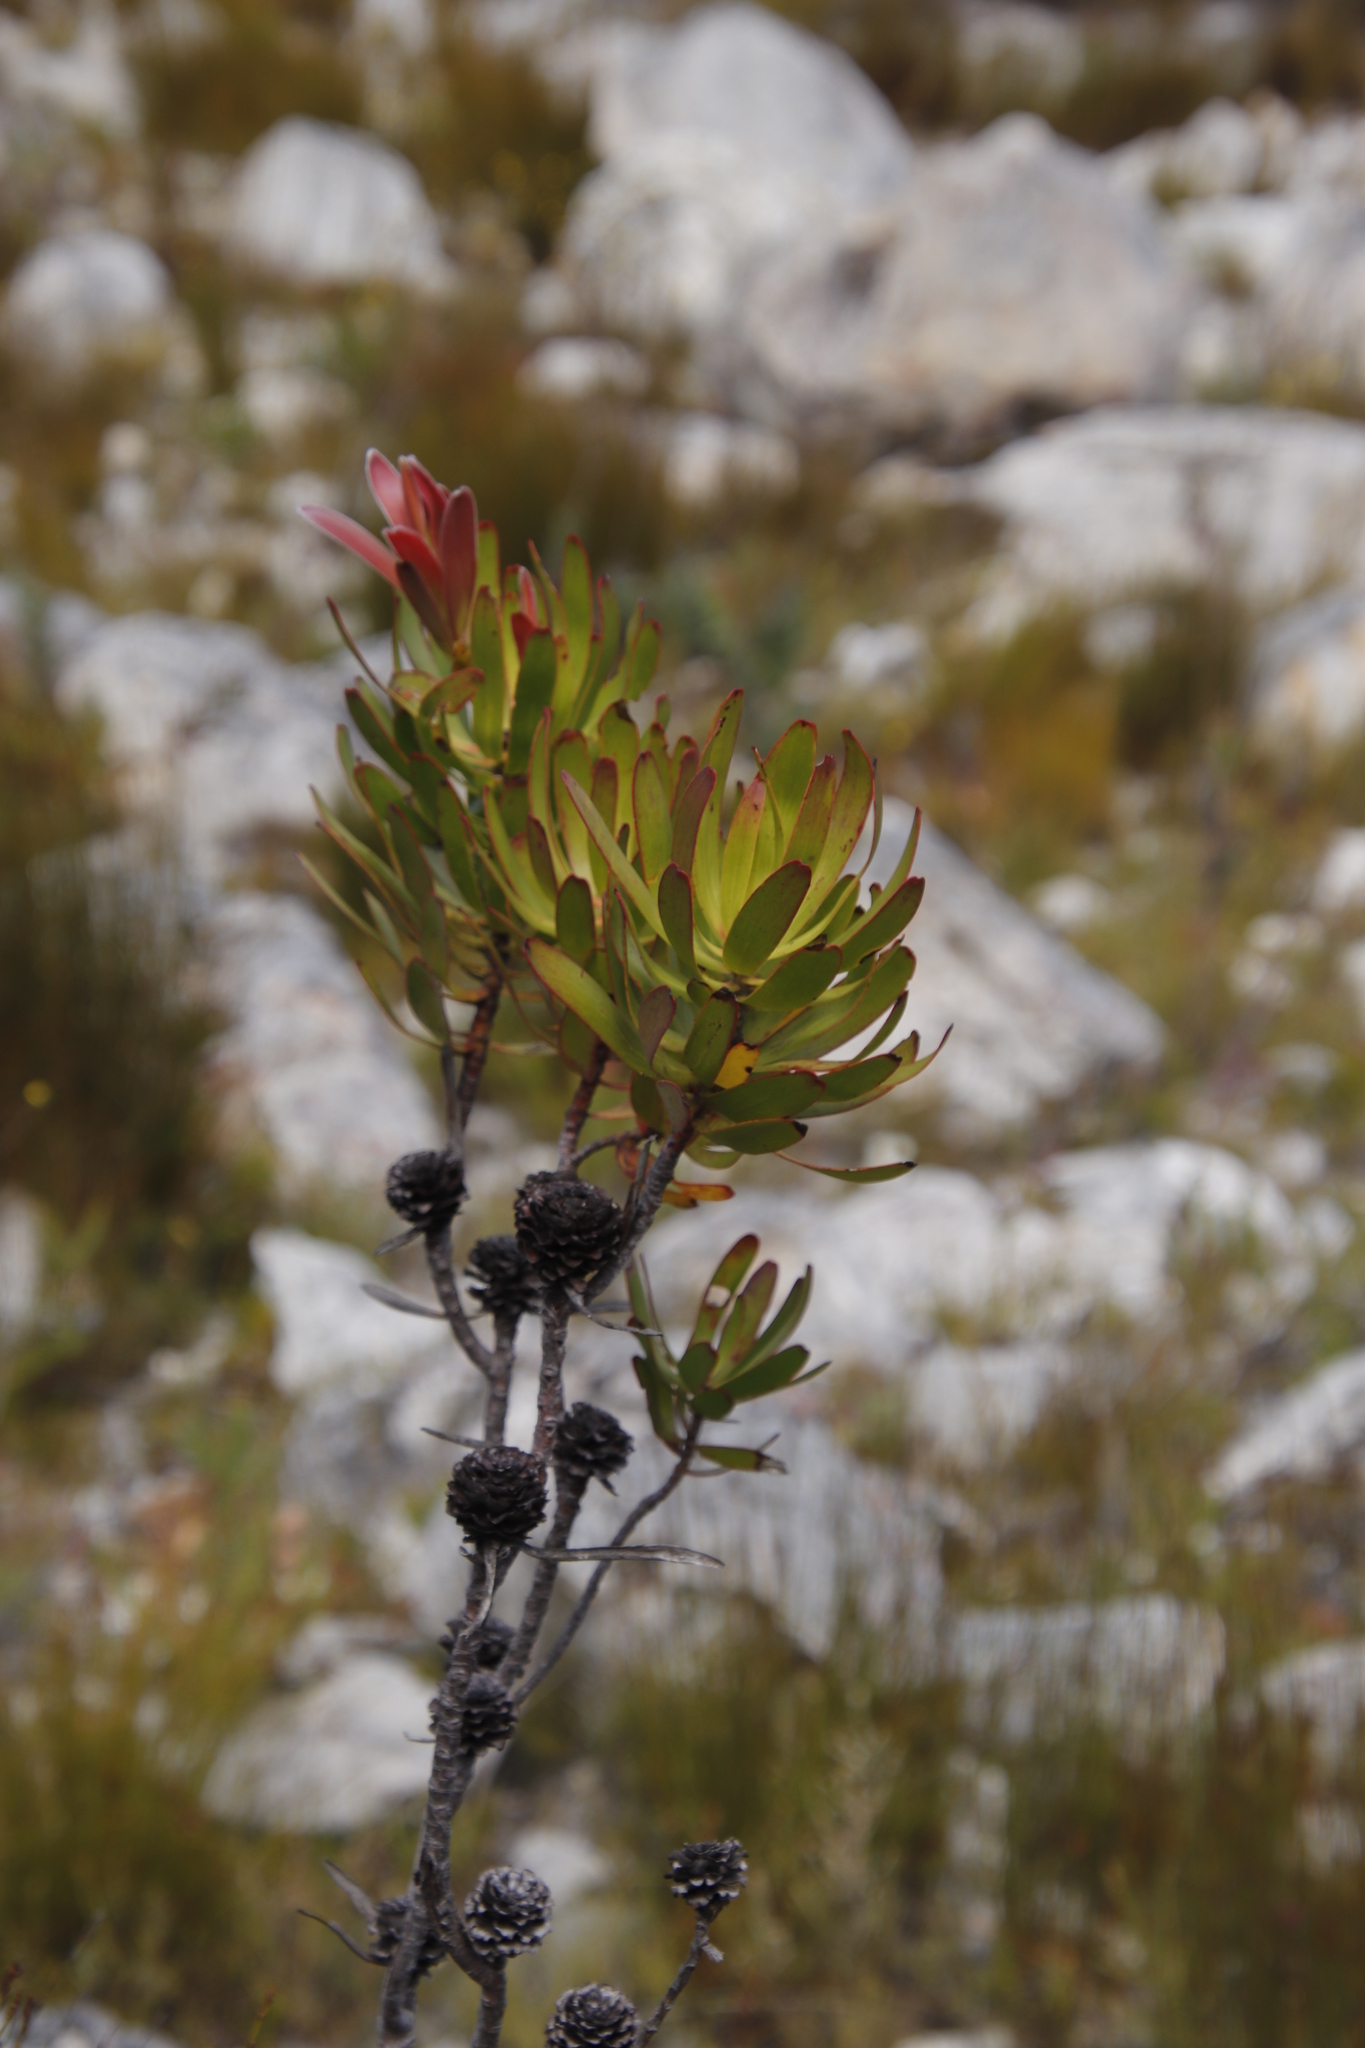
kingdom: Plantae
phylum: Tracheophyta
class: Magnoliopsida
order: Proteales
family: Proteaceae
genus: Leucadendron
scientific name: Leucadendron microcephalum
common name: Oilbract conebush
